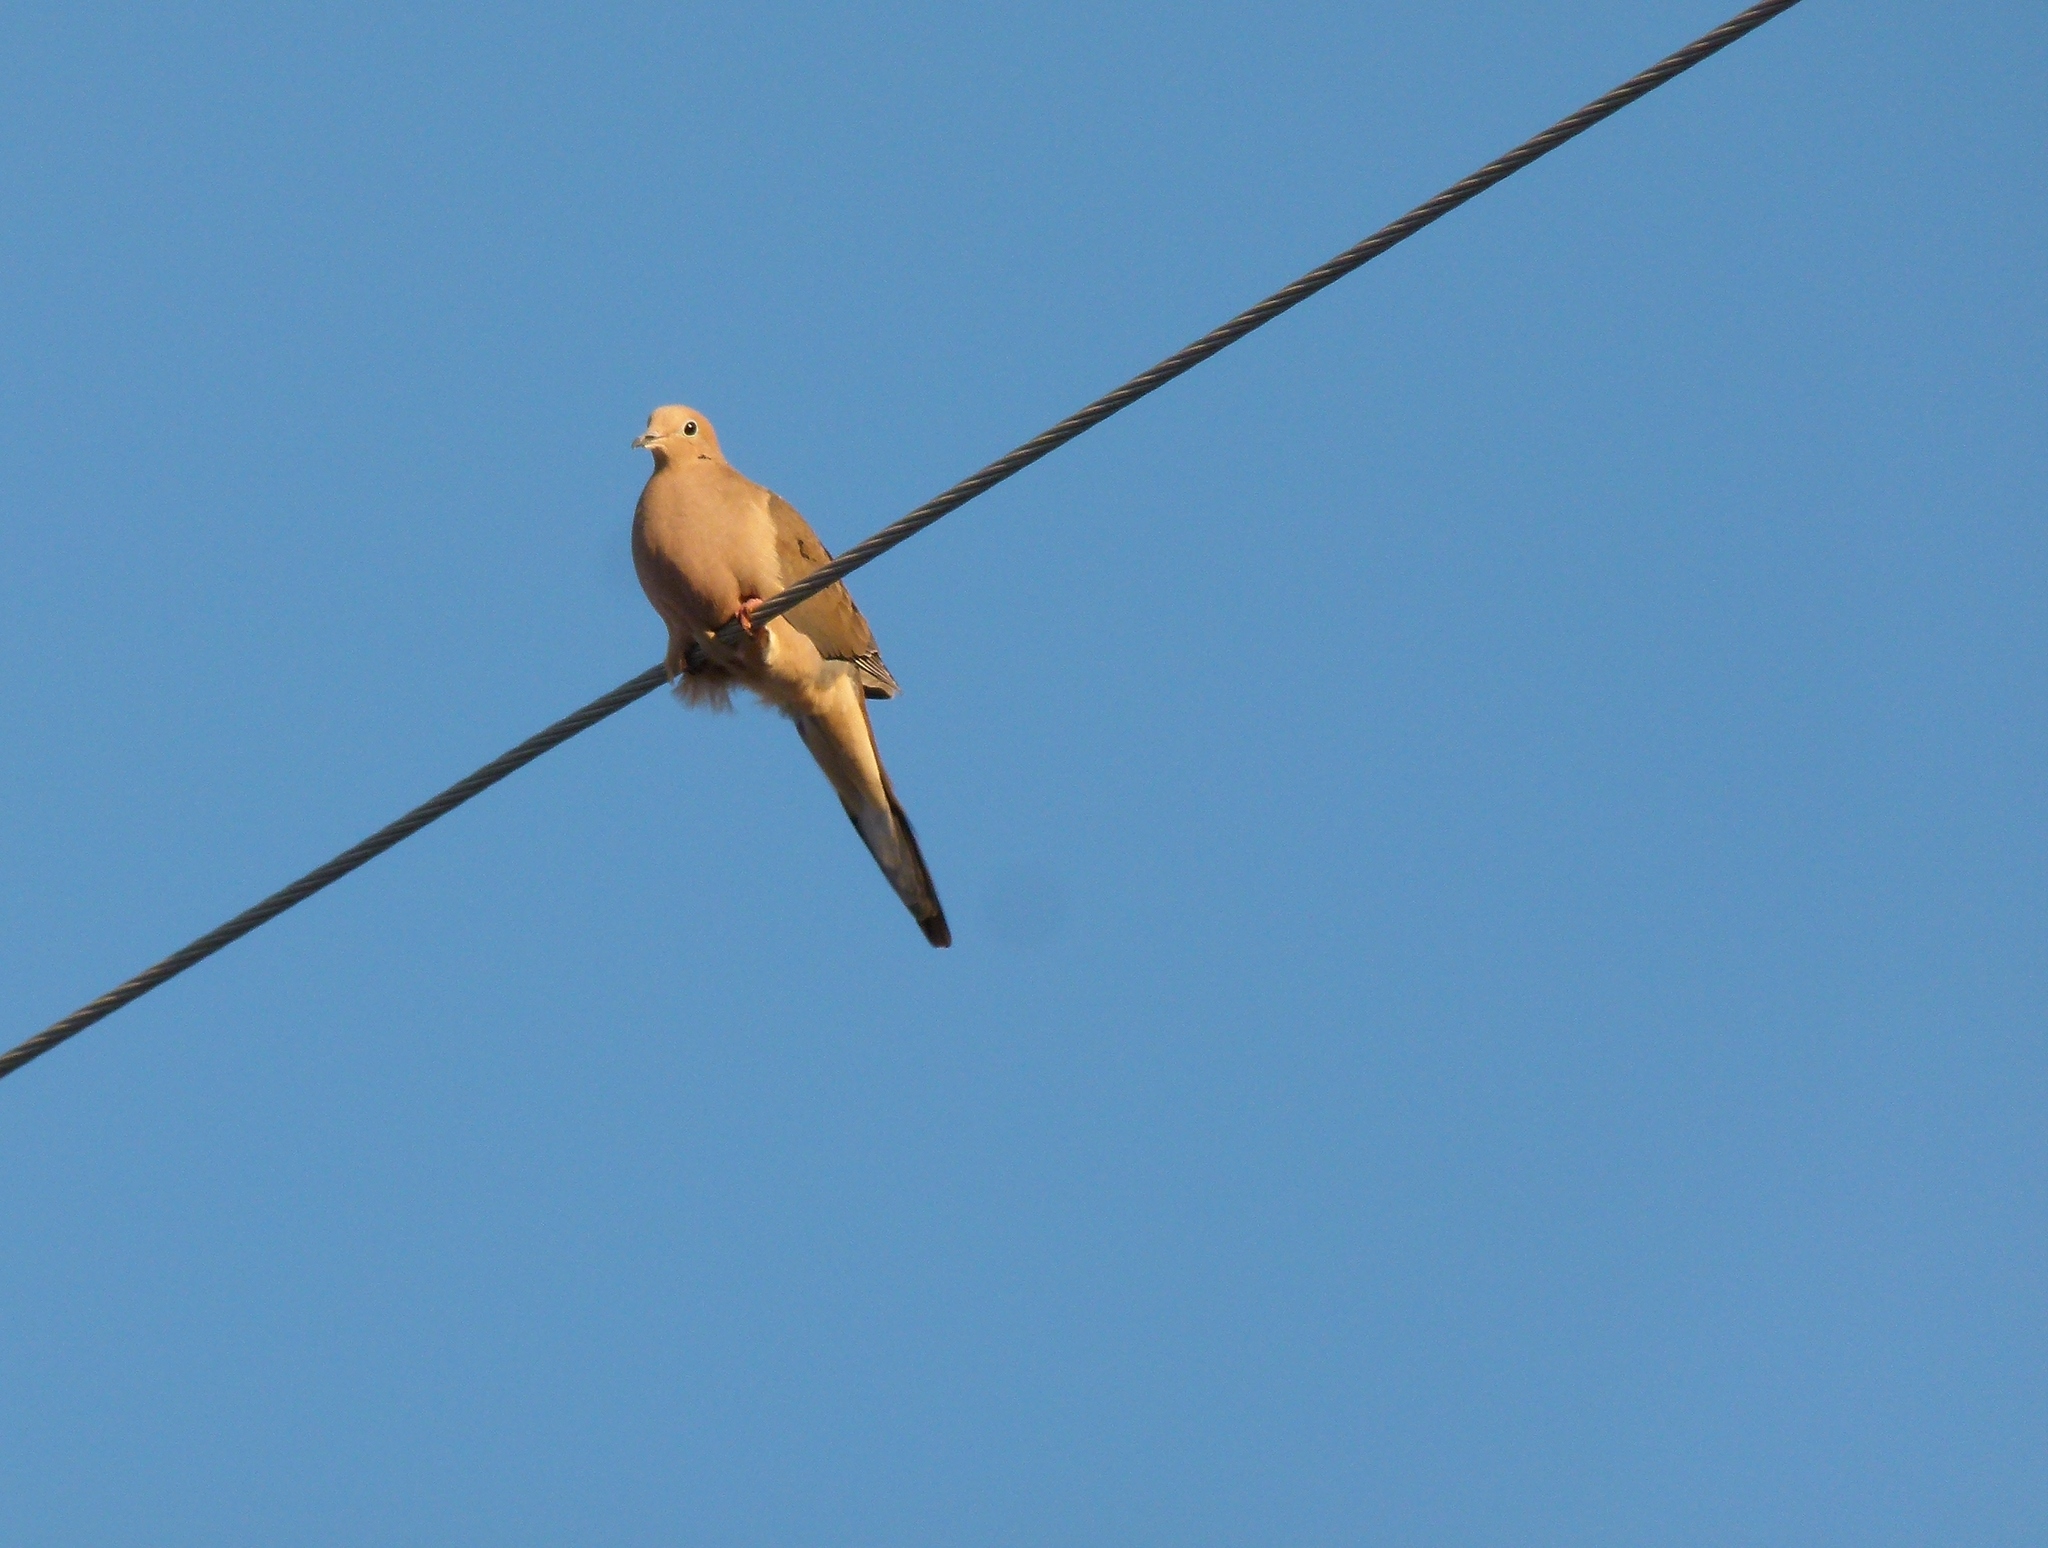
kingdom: Animalia
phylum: Chordata
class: Aves
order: Columbiformes
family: Columbidae
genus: Zenaida
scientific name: Zenaida macroura
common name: Mourning dove
